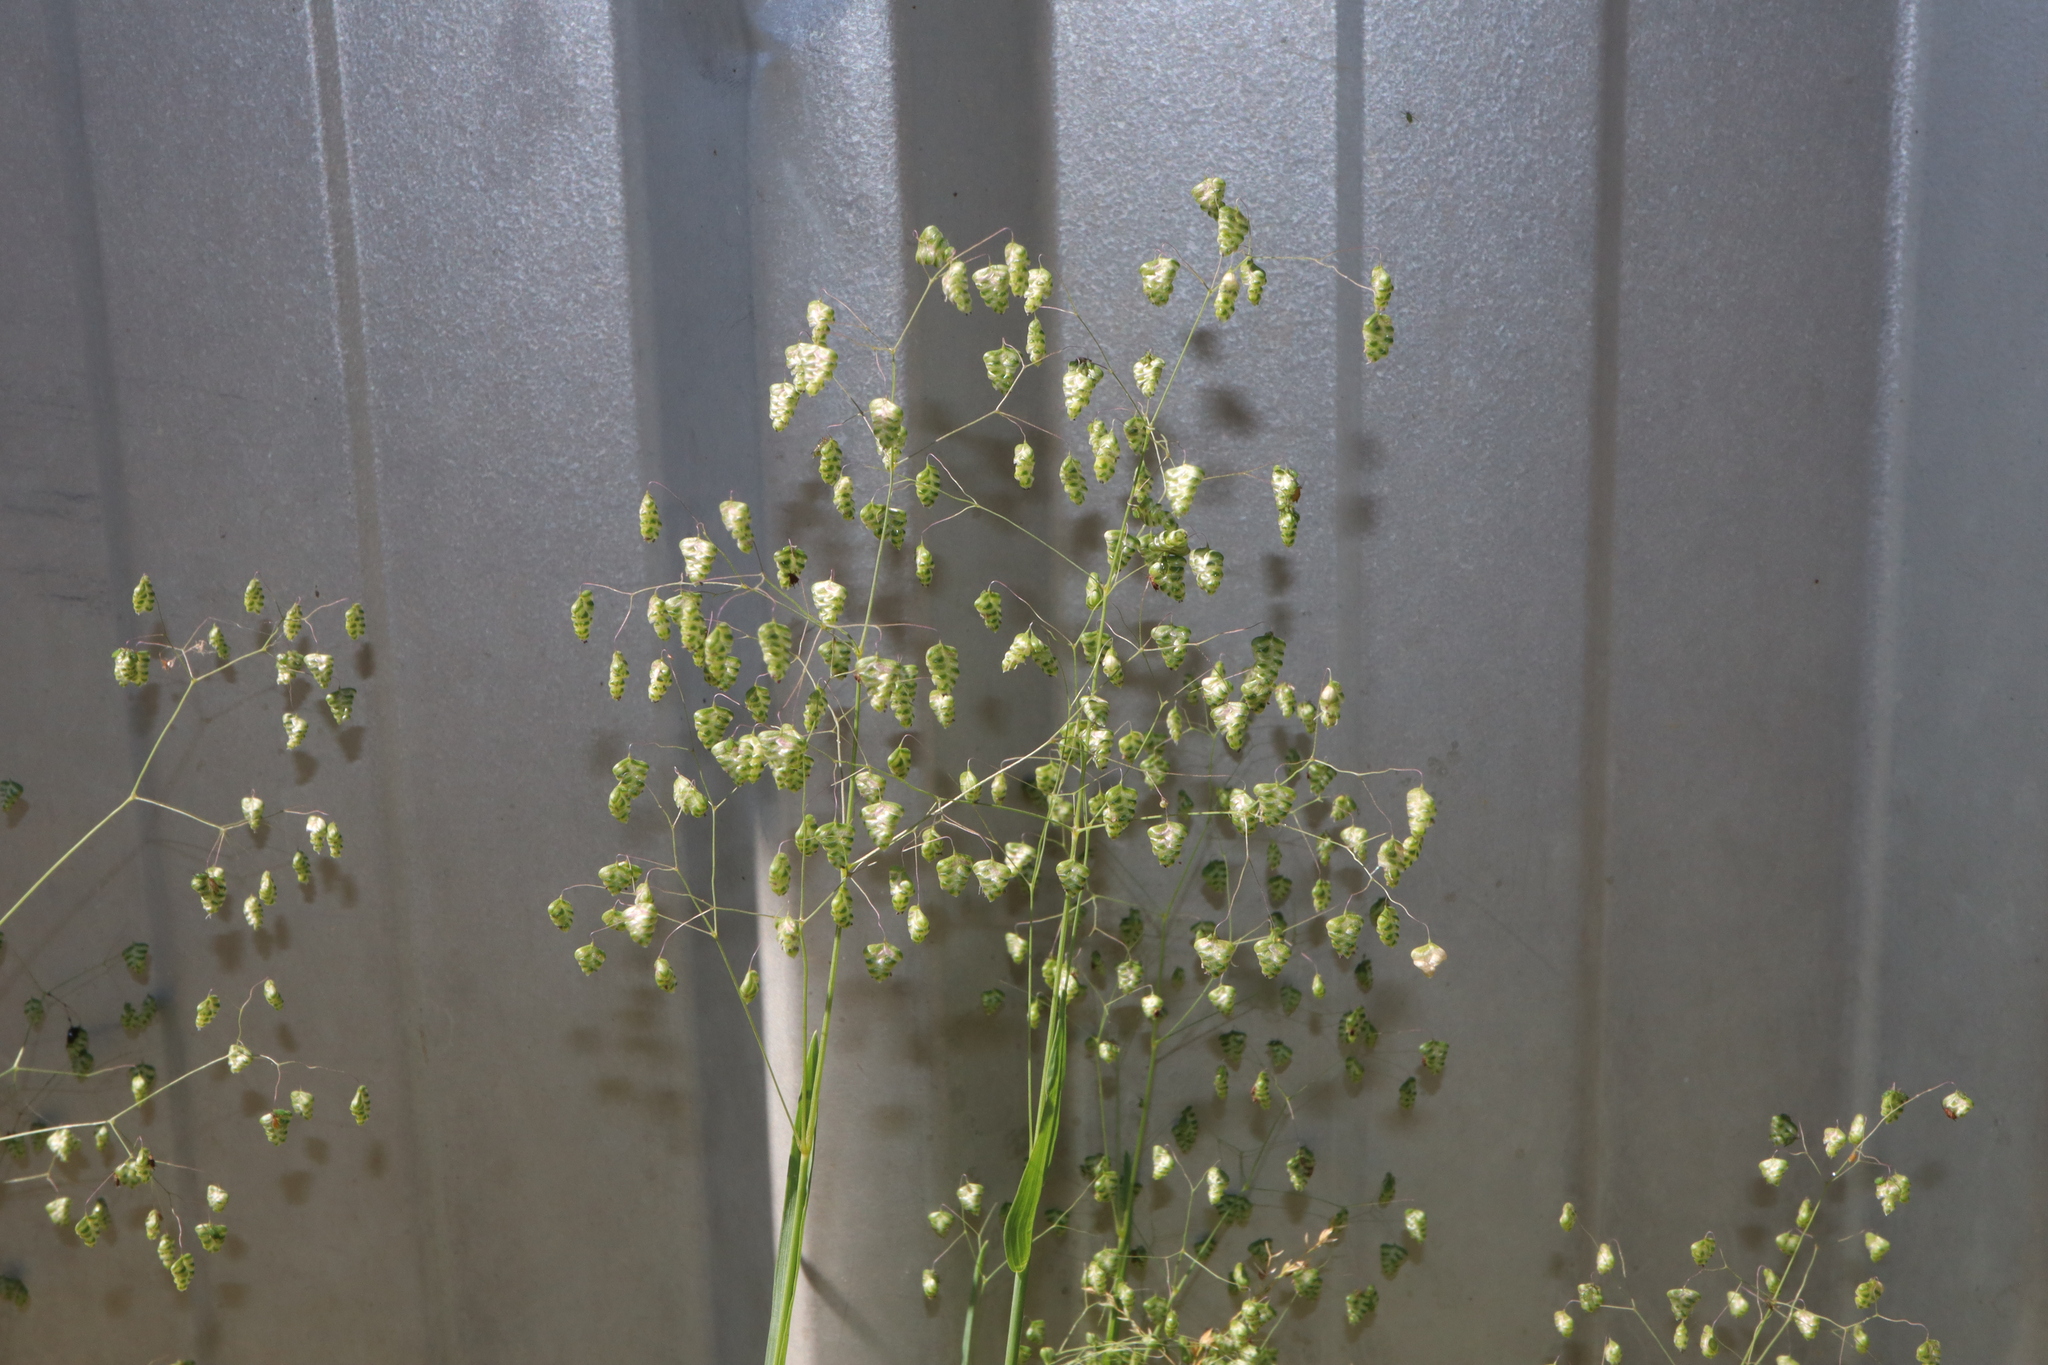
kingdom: Plantae
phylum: Tracheophyta
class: Liliopsida
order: Poales
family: Poaceae
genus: Briza
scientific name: Briza minor
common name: Lesser quaking-grass
